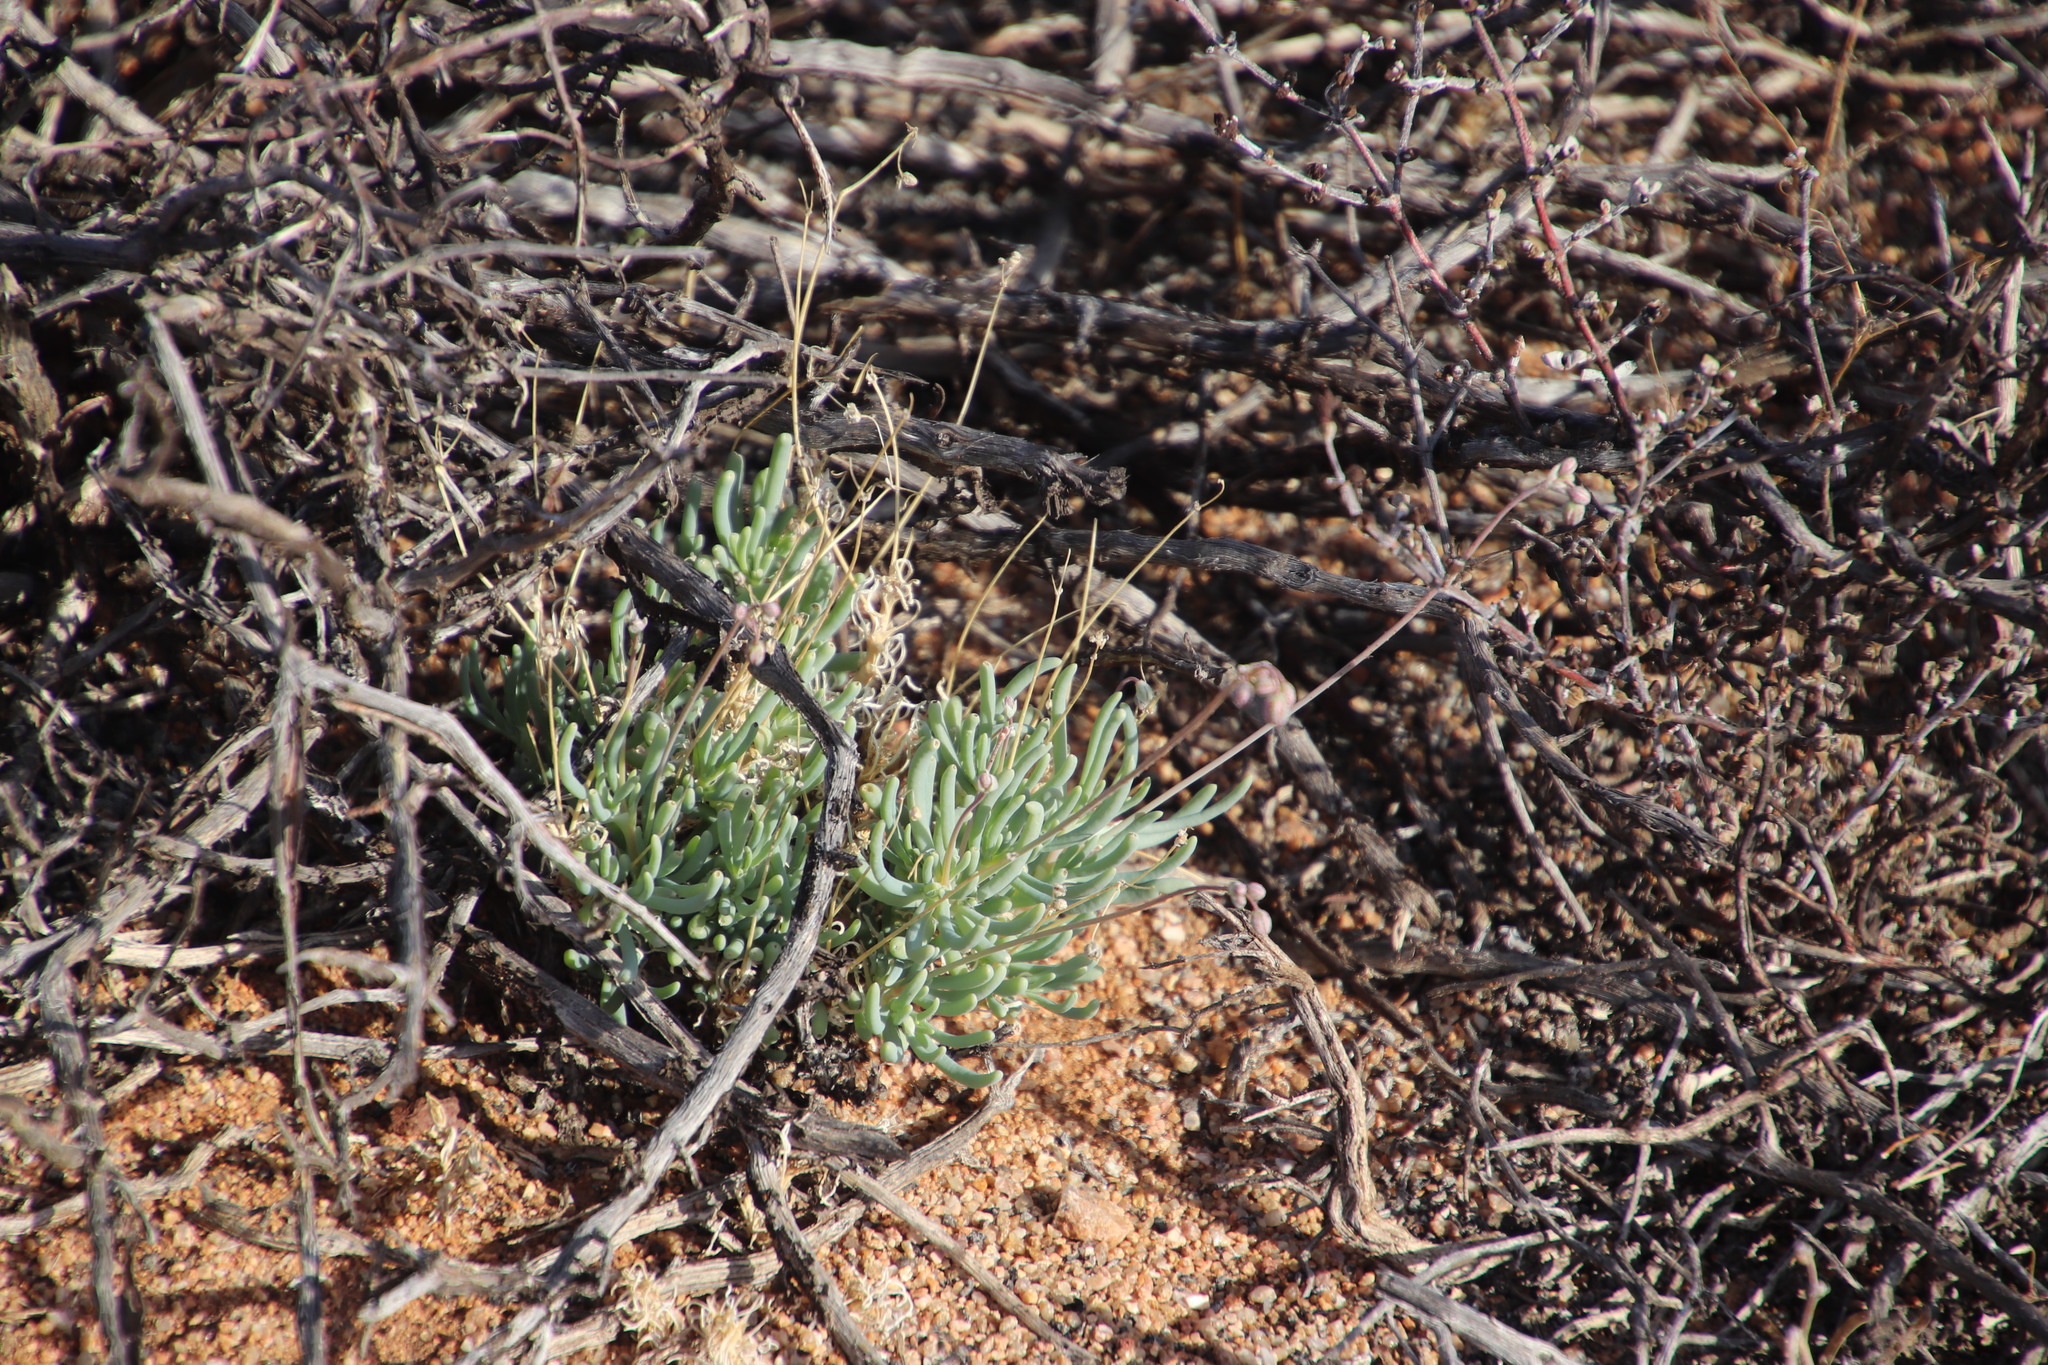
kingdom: Plantae
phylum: Tracheophyta
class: Magnoliopsida
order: Caryophyllales
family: Kewaceae
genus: Kewa
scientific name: Kewa salsoloides
